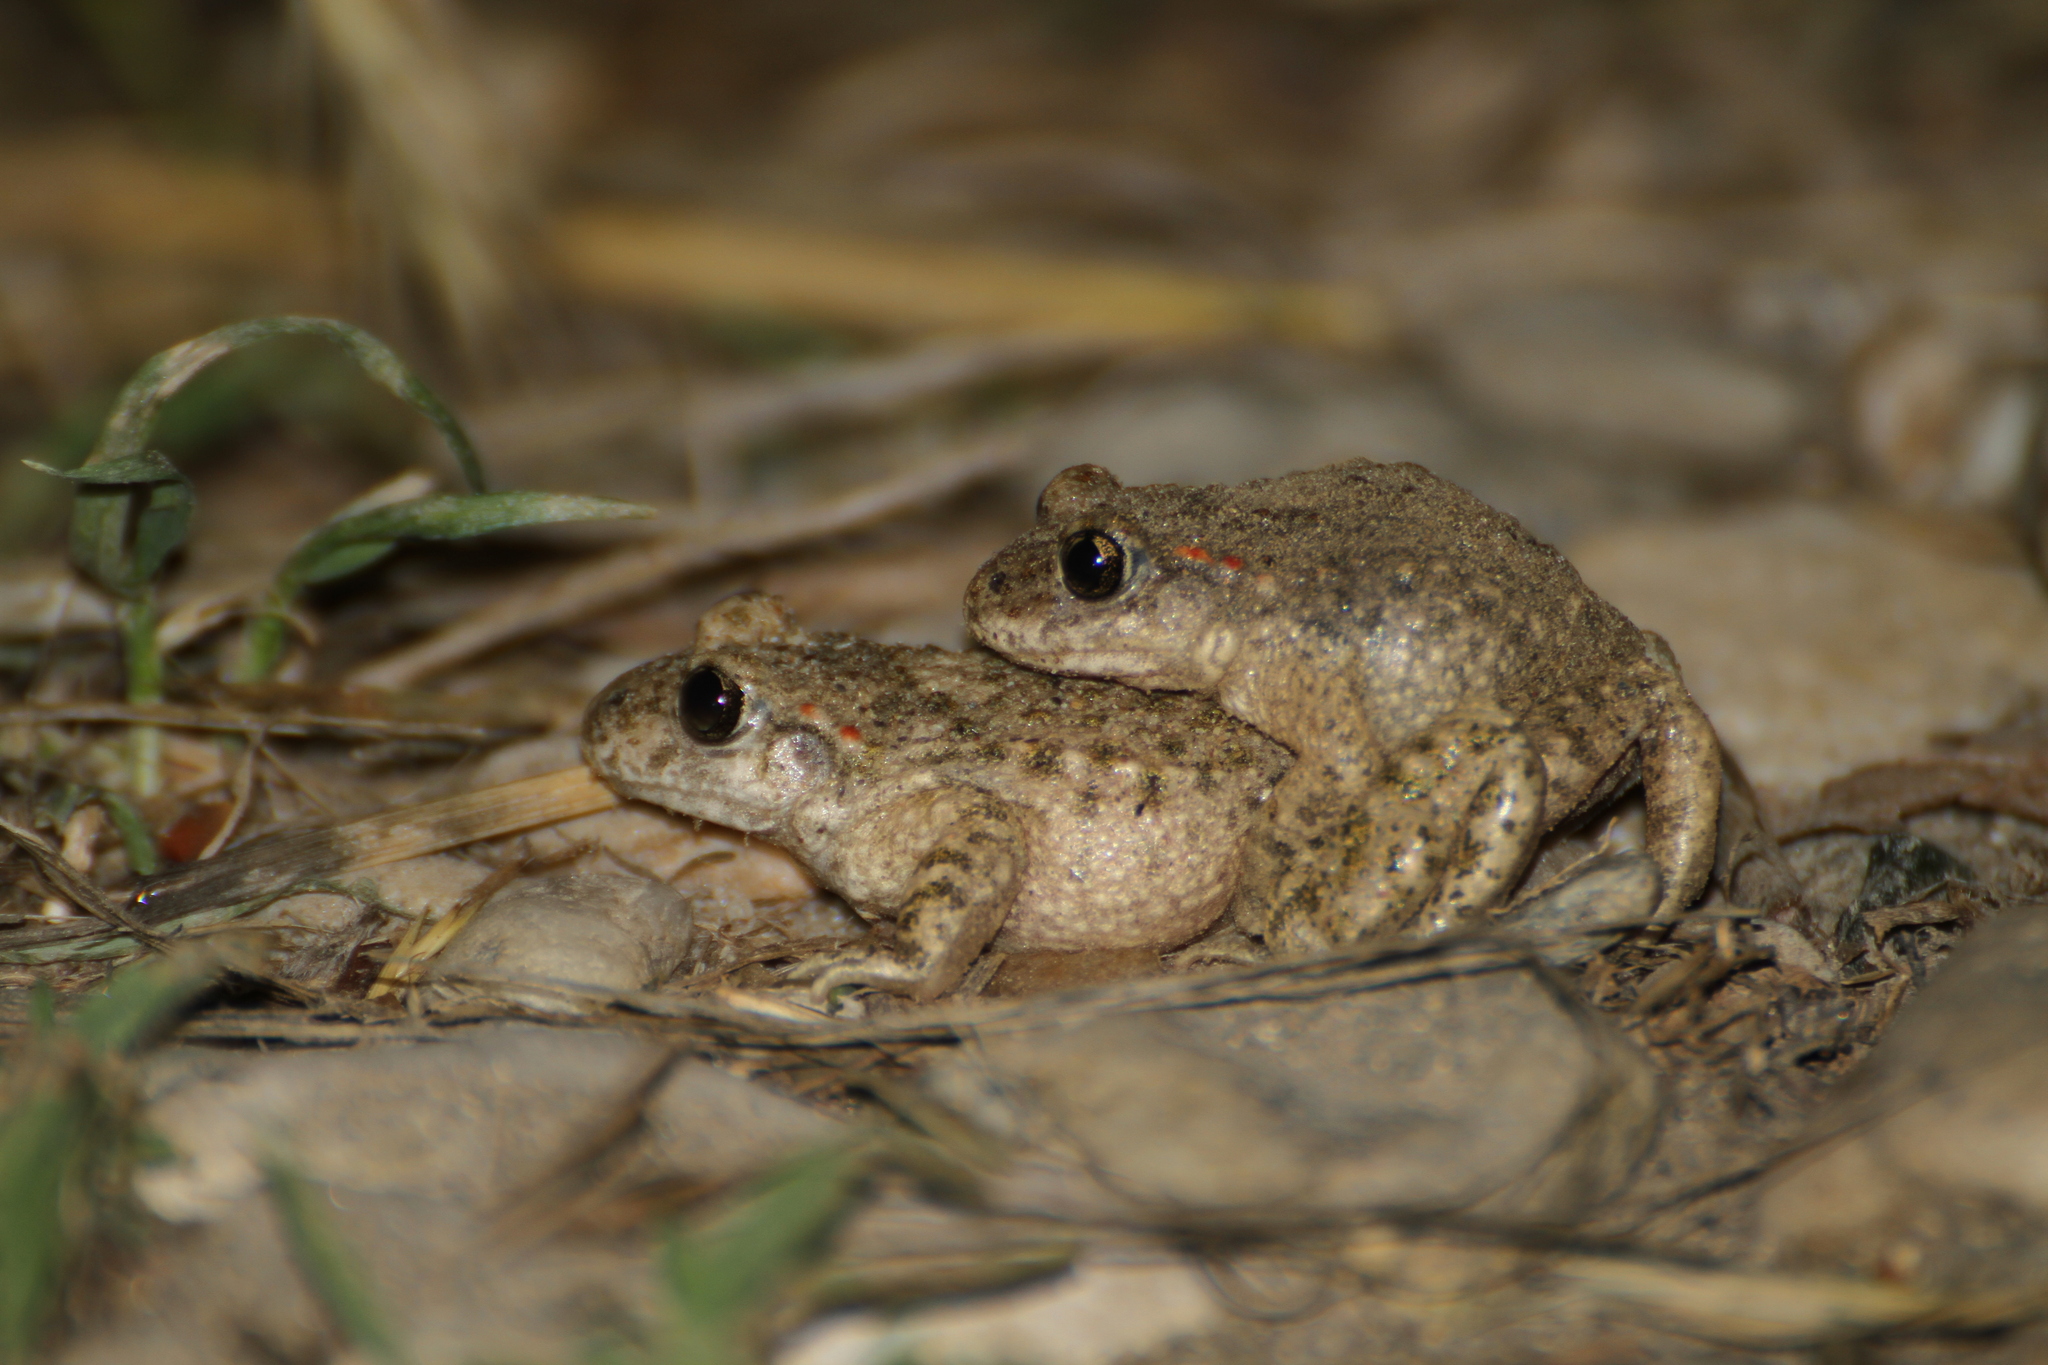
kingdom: Animalia
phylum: Chordata
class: Amphibia
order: Anura
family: Alytidae
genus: Alytes
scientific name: Alytes obstetricans
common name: Midwife toad
